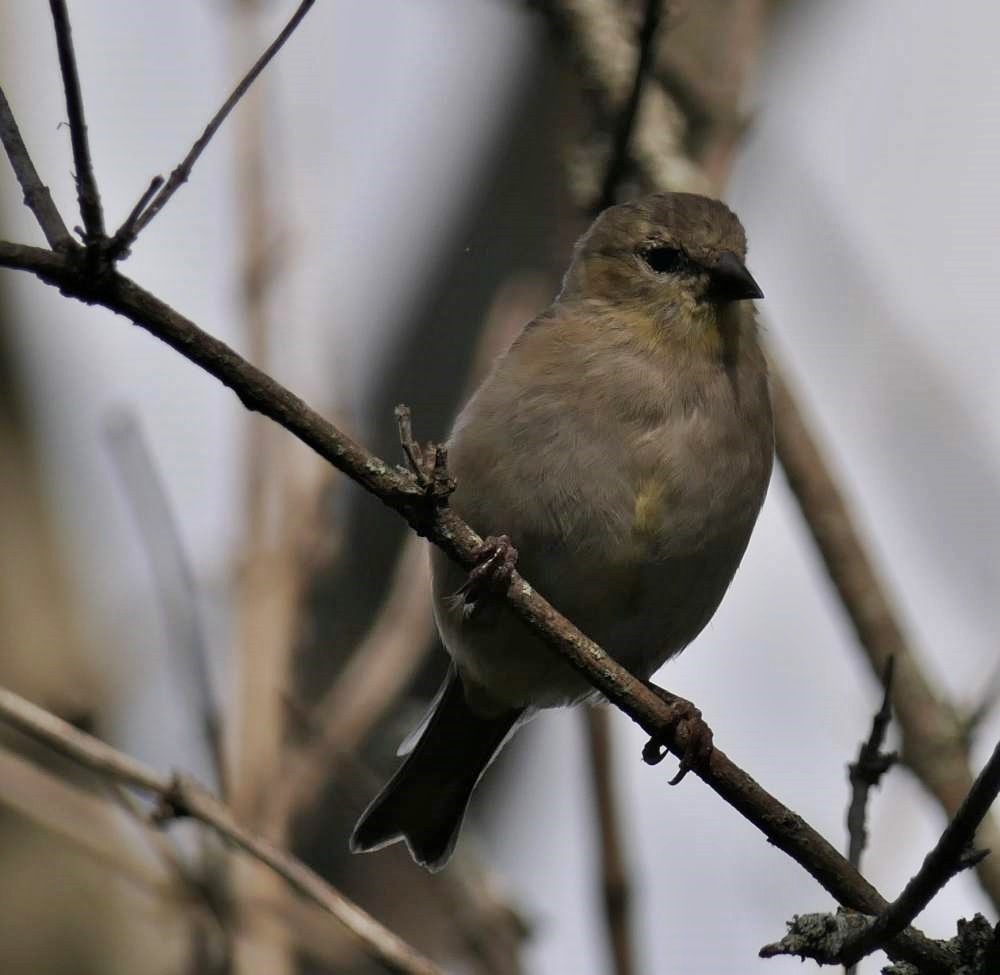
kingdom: Animalia
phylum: Chordata
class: Aves
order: Passeriformes
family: Corvidae
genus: Corvus
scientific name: Corvus brachyrhynchos
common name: American crow
